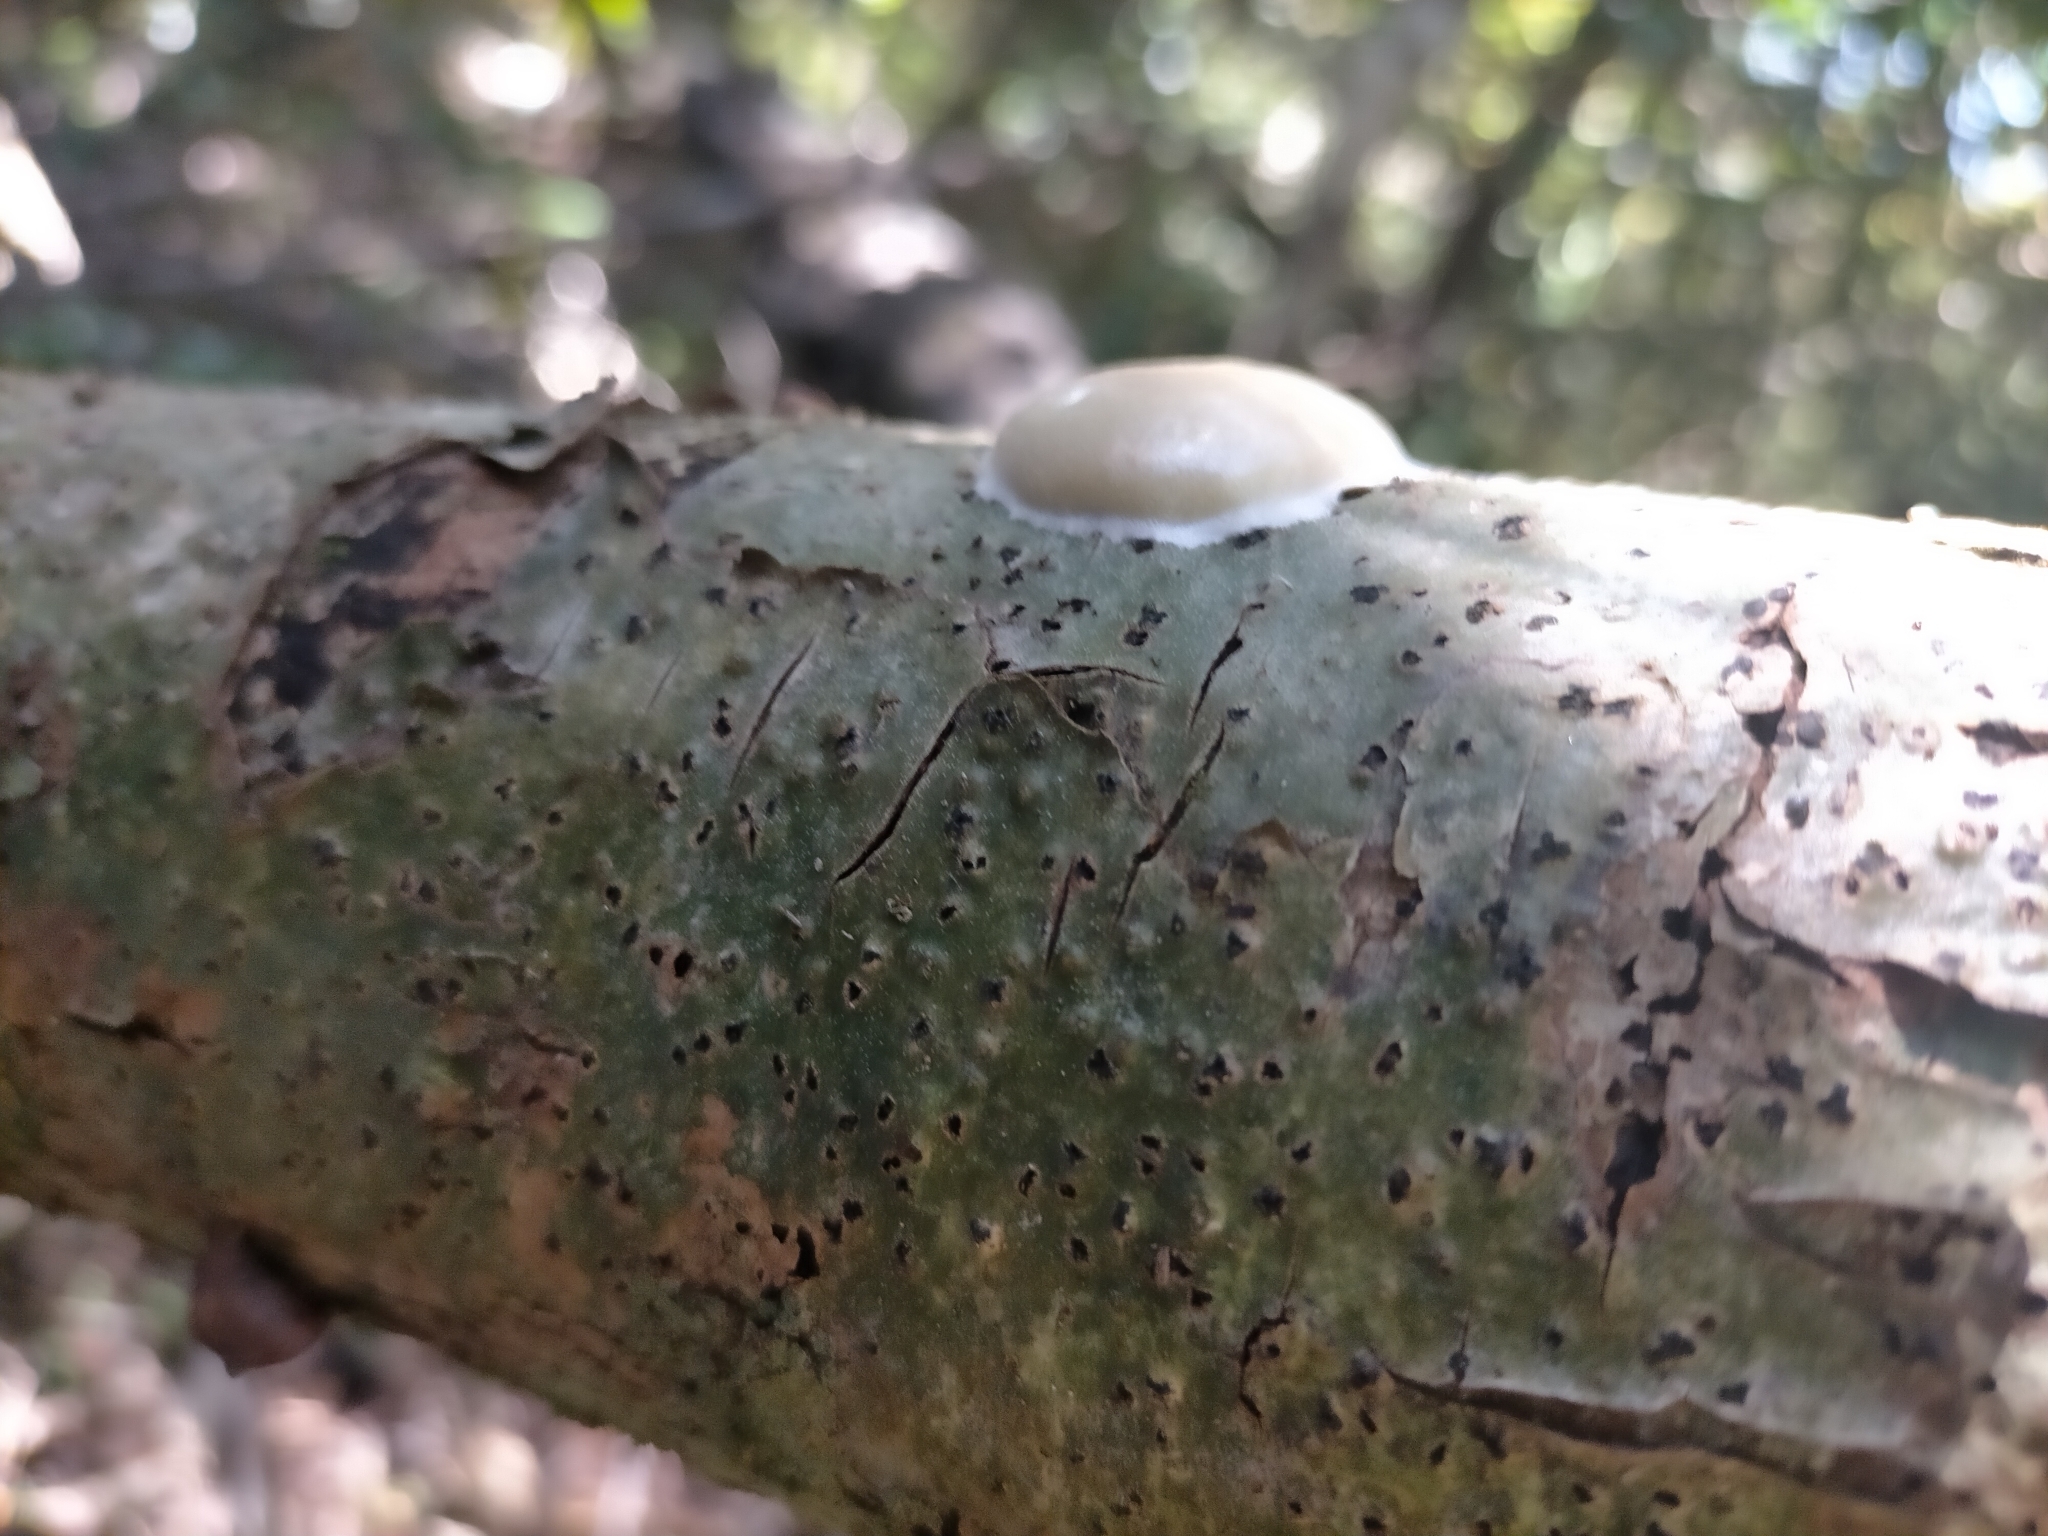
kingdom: Protozoa
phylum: Mycetozoa
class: Myxomycetes
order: Cribrariales
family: Tubiferaceae
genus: Reticularia
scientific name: Reticularia lycoperdon
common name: False puffball
